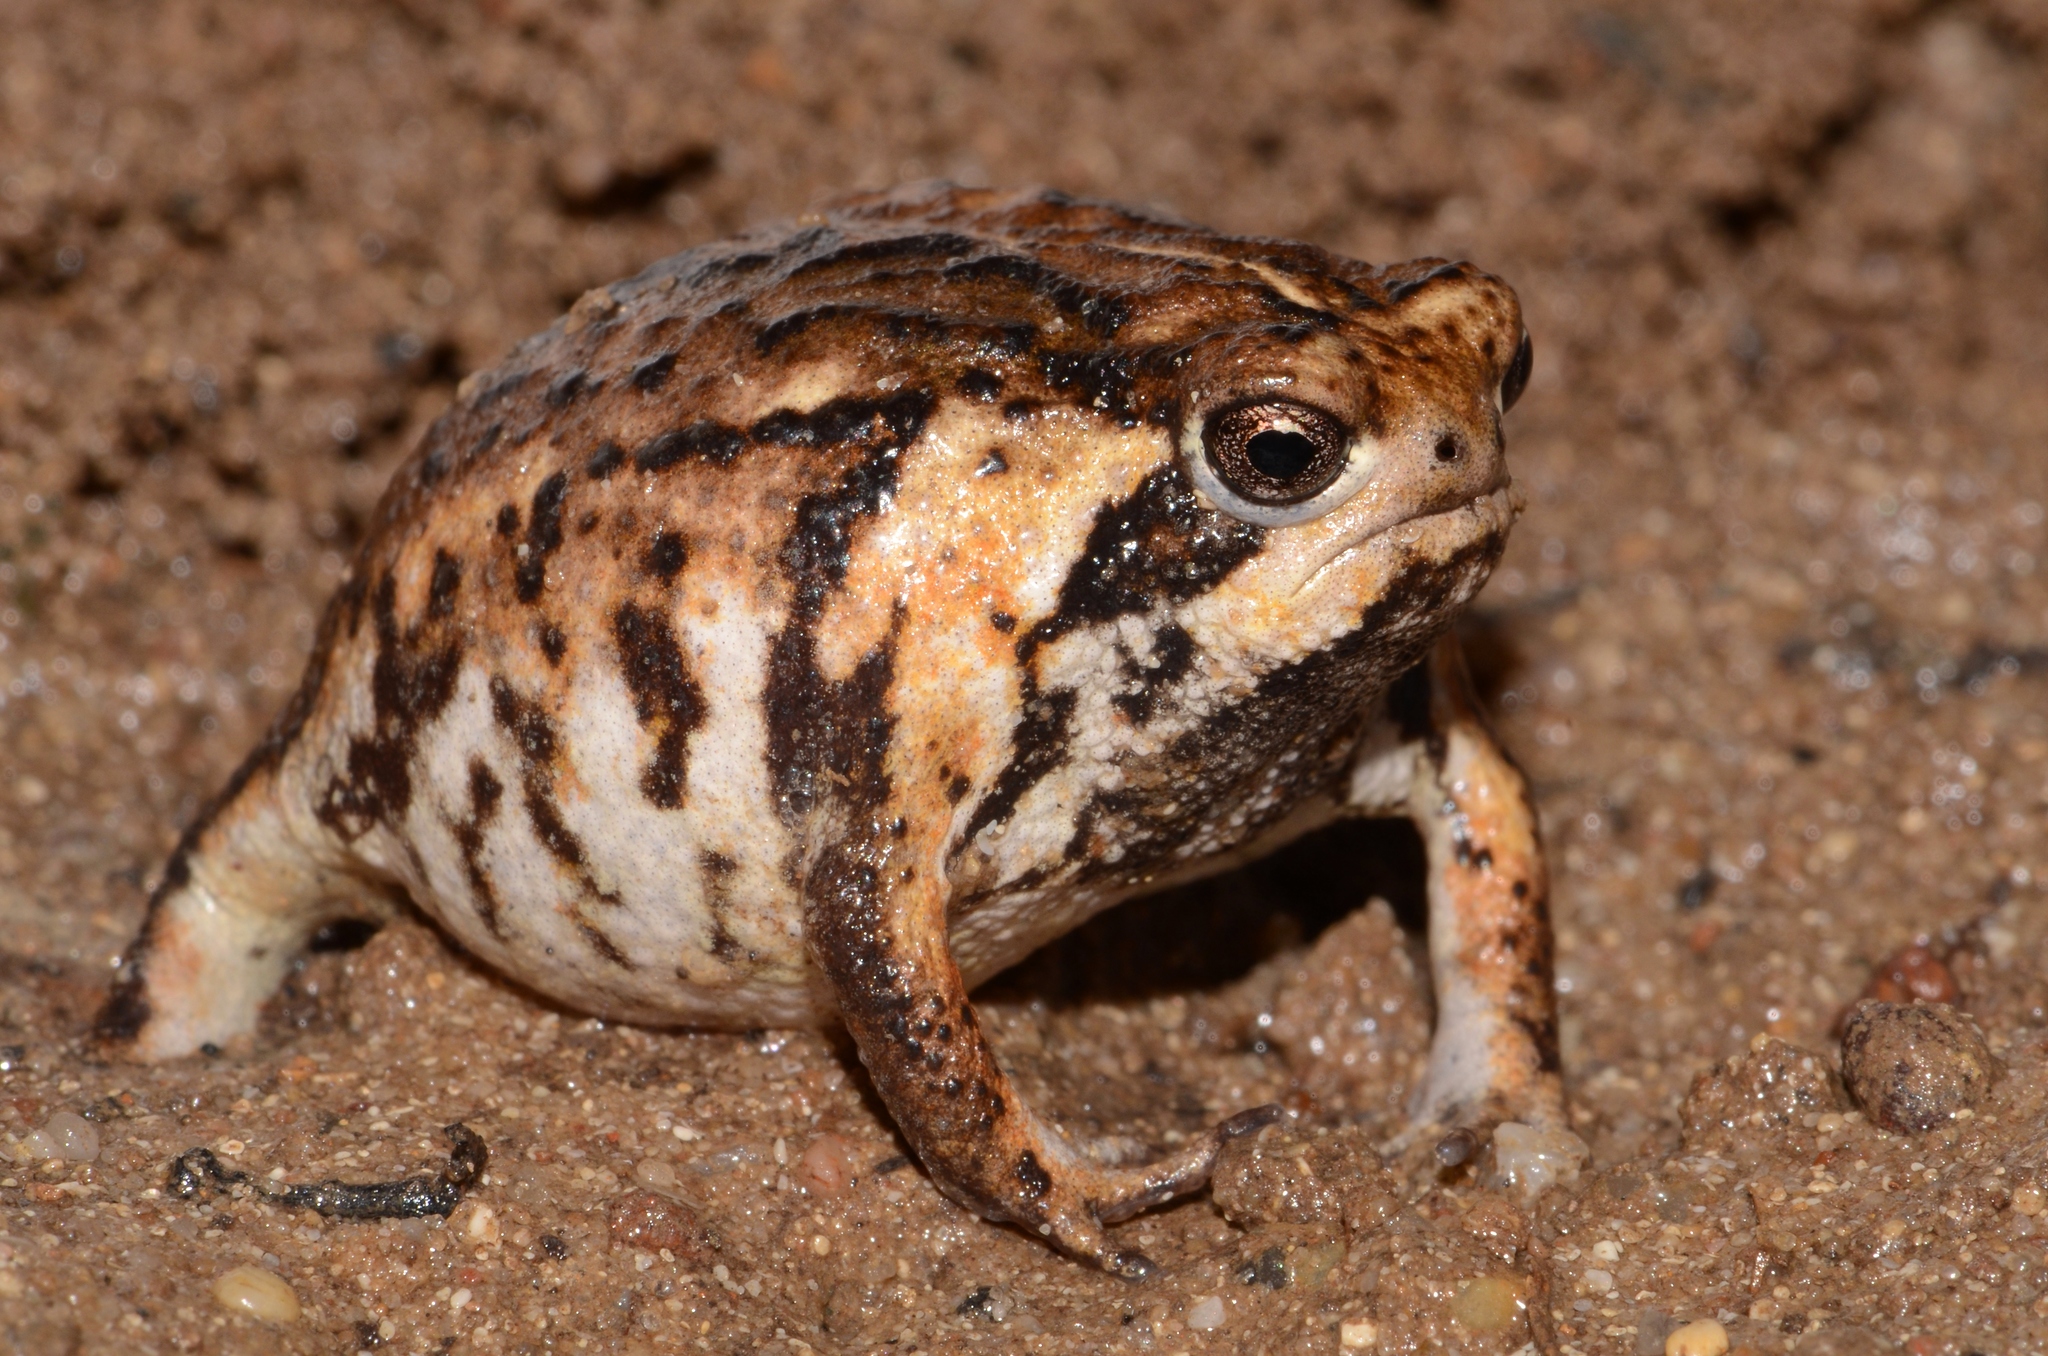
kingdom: Animalia
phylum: Chordata
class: Amphibia
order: Anura
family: Brevicipitidae
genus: Breviceps
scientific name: Breviceps rosei
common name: Rose's short-headed frog
